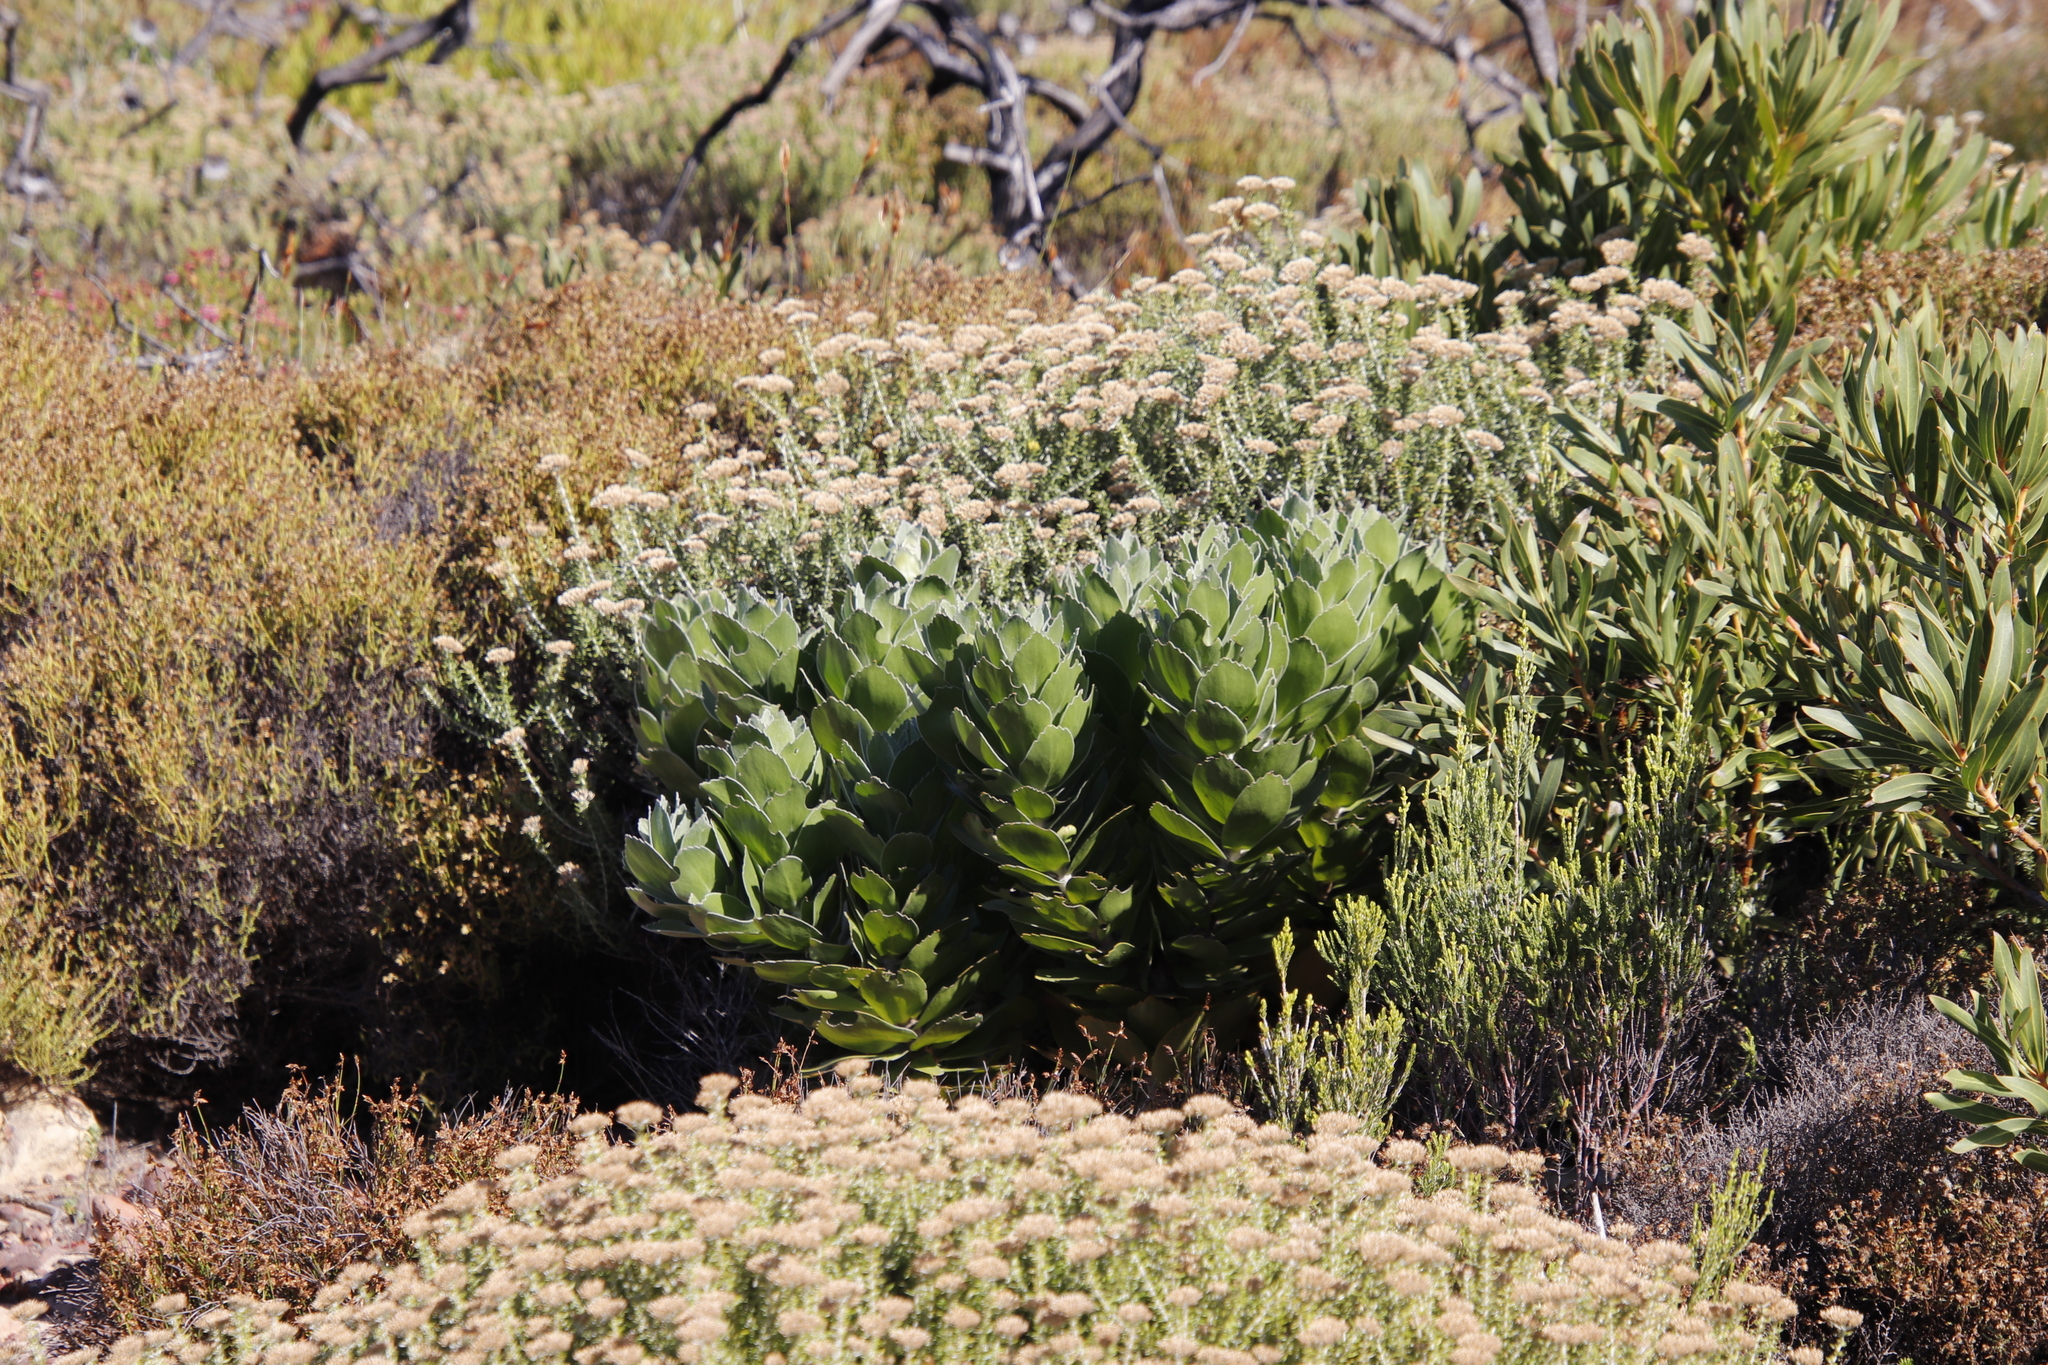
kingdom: Plantae
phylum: Tracheophyta
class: Magnoliopsida
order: Proteales
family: Proteaceae
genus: Leucospermum
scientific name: Leucospermum conocarpodendron
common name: Tree pincushion
